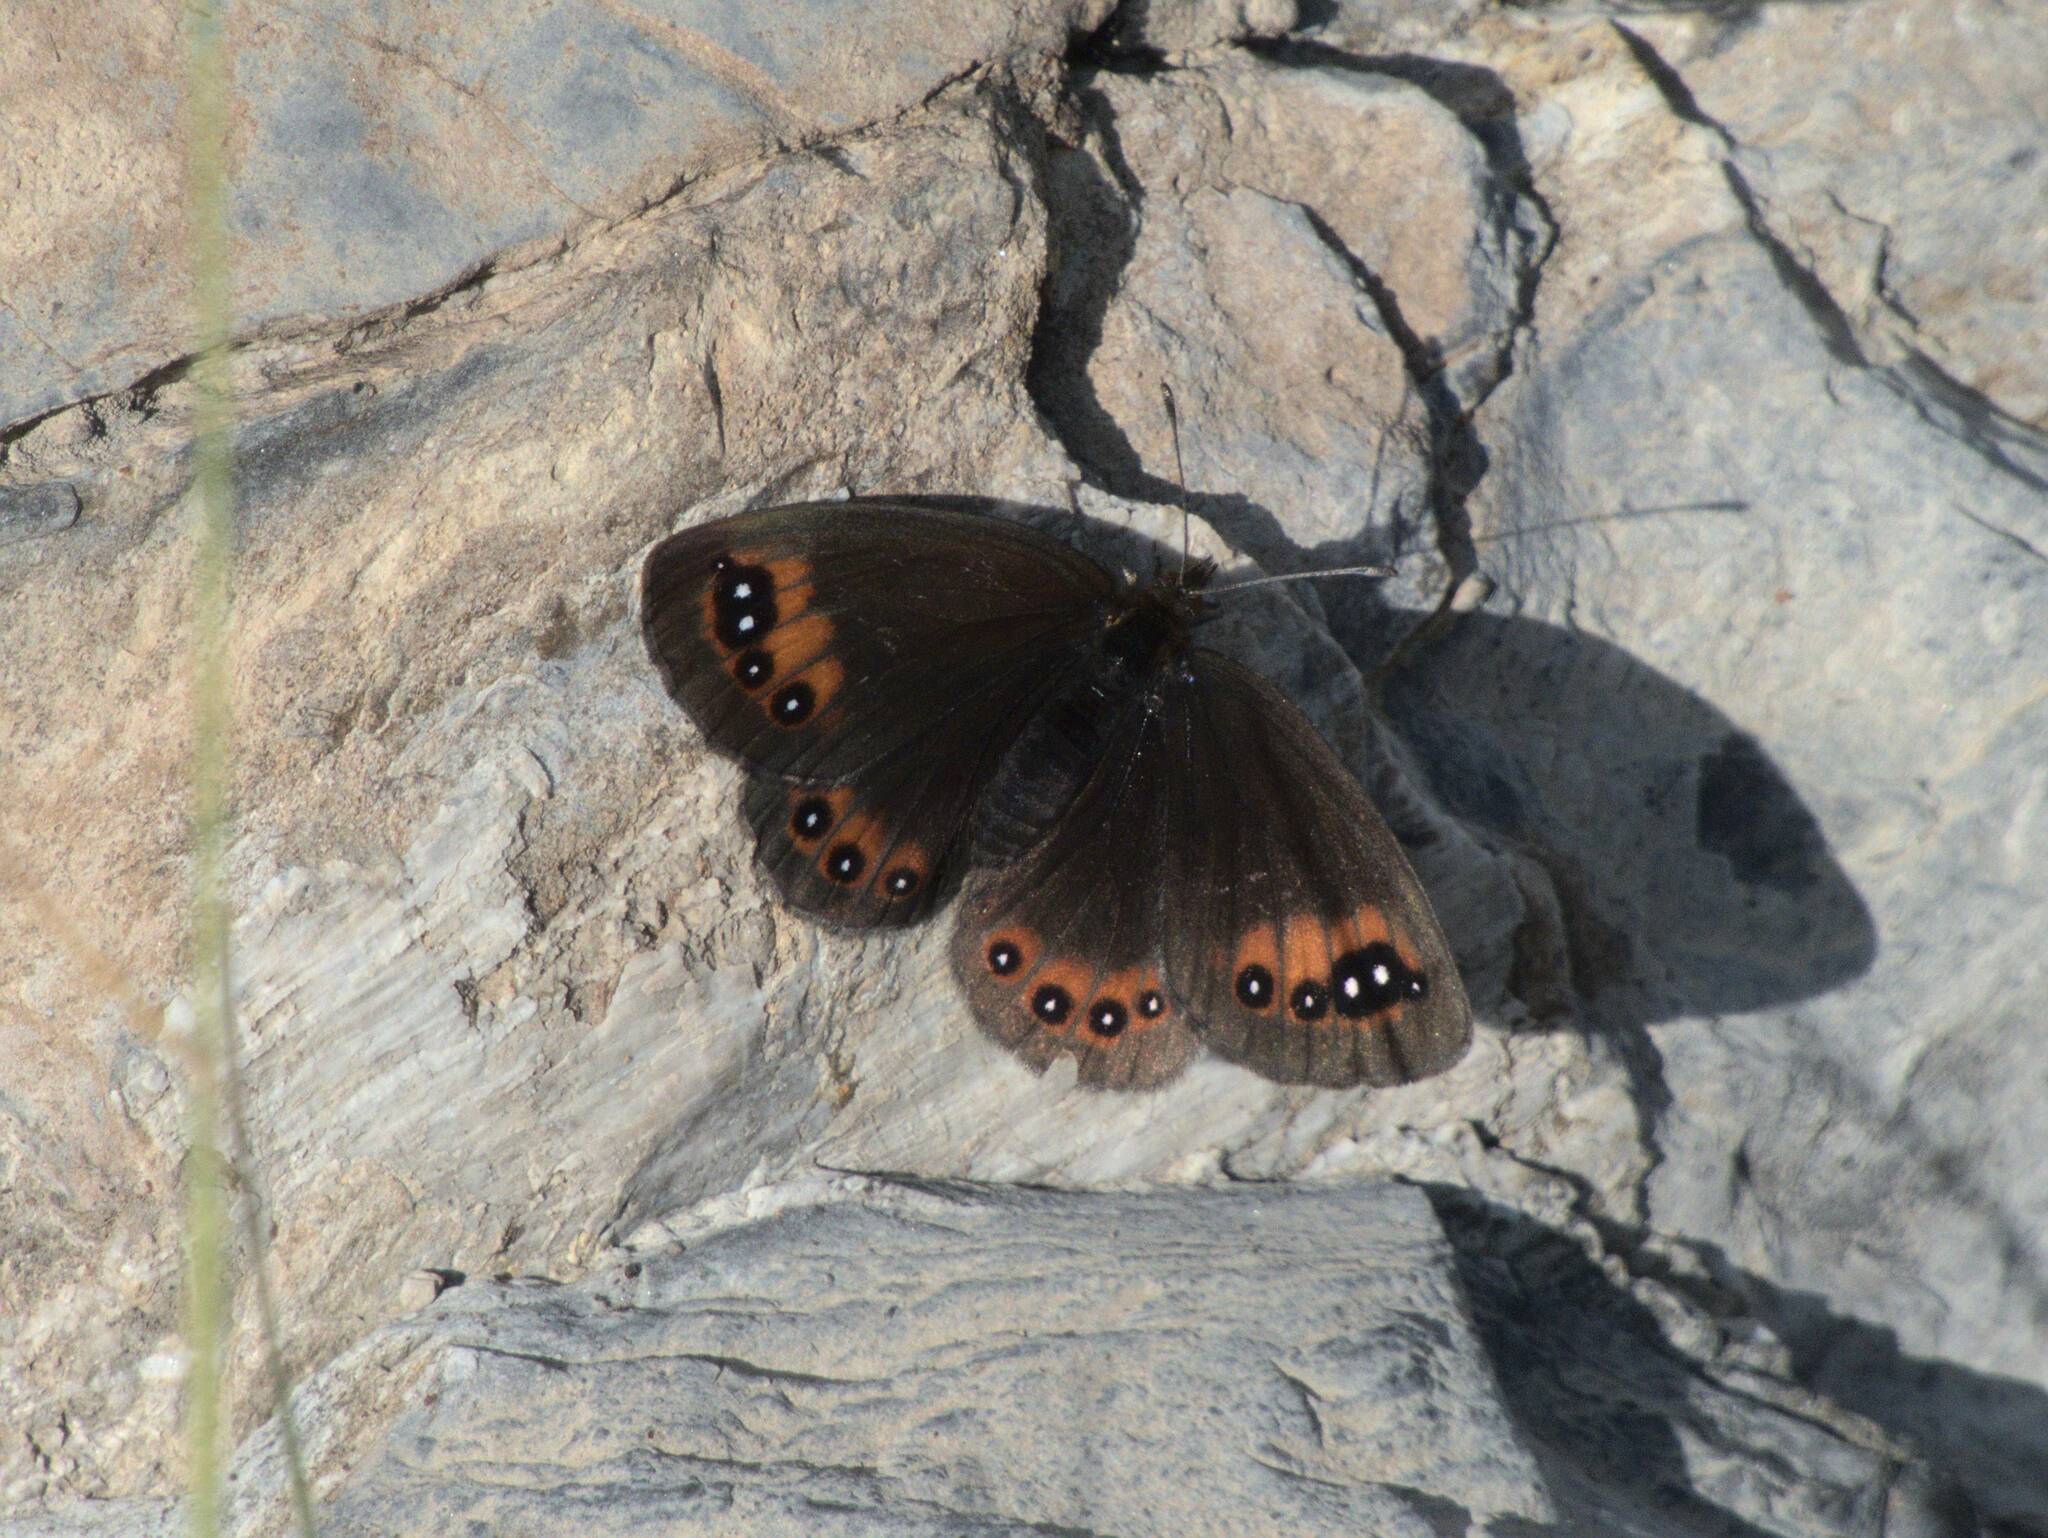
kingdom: Animalia
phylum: Arthropoda
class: Insecta
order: Lepidoptera
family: Nymphalidae
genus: Erebia
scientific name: Erebia meolans
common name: Piedmont ringlet
